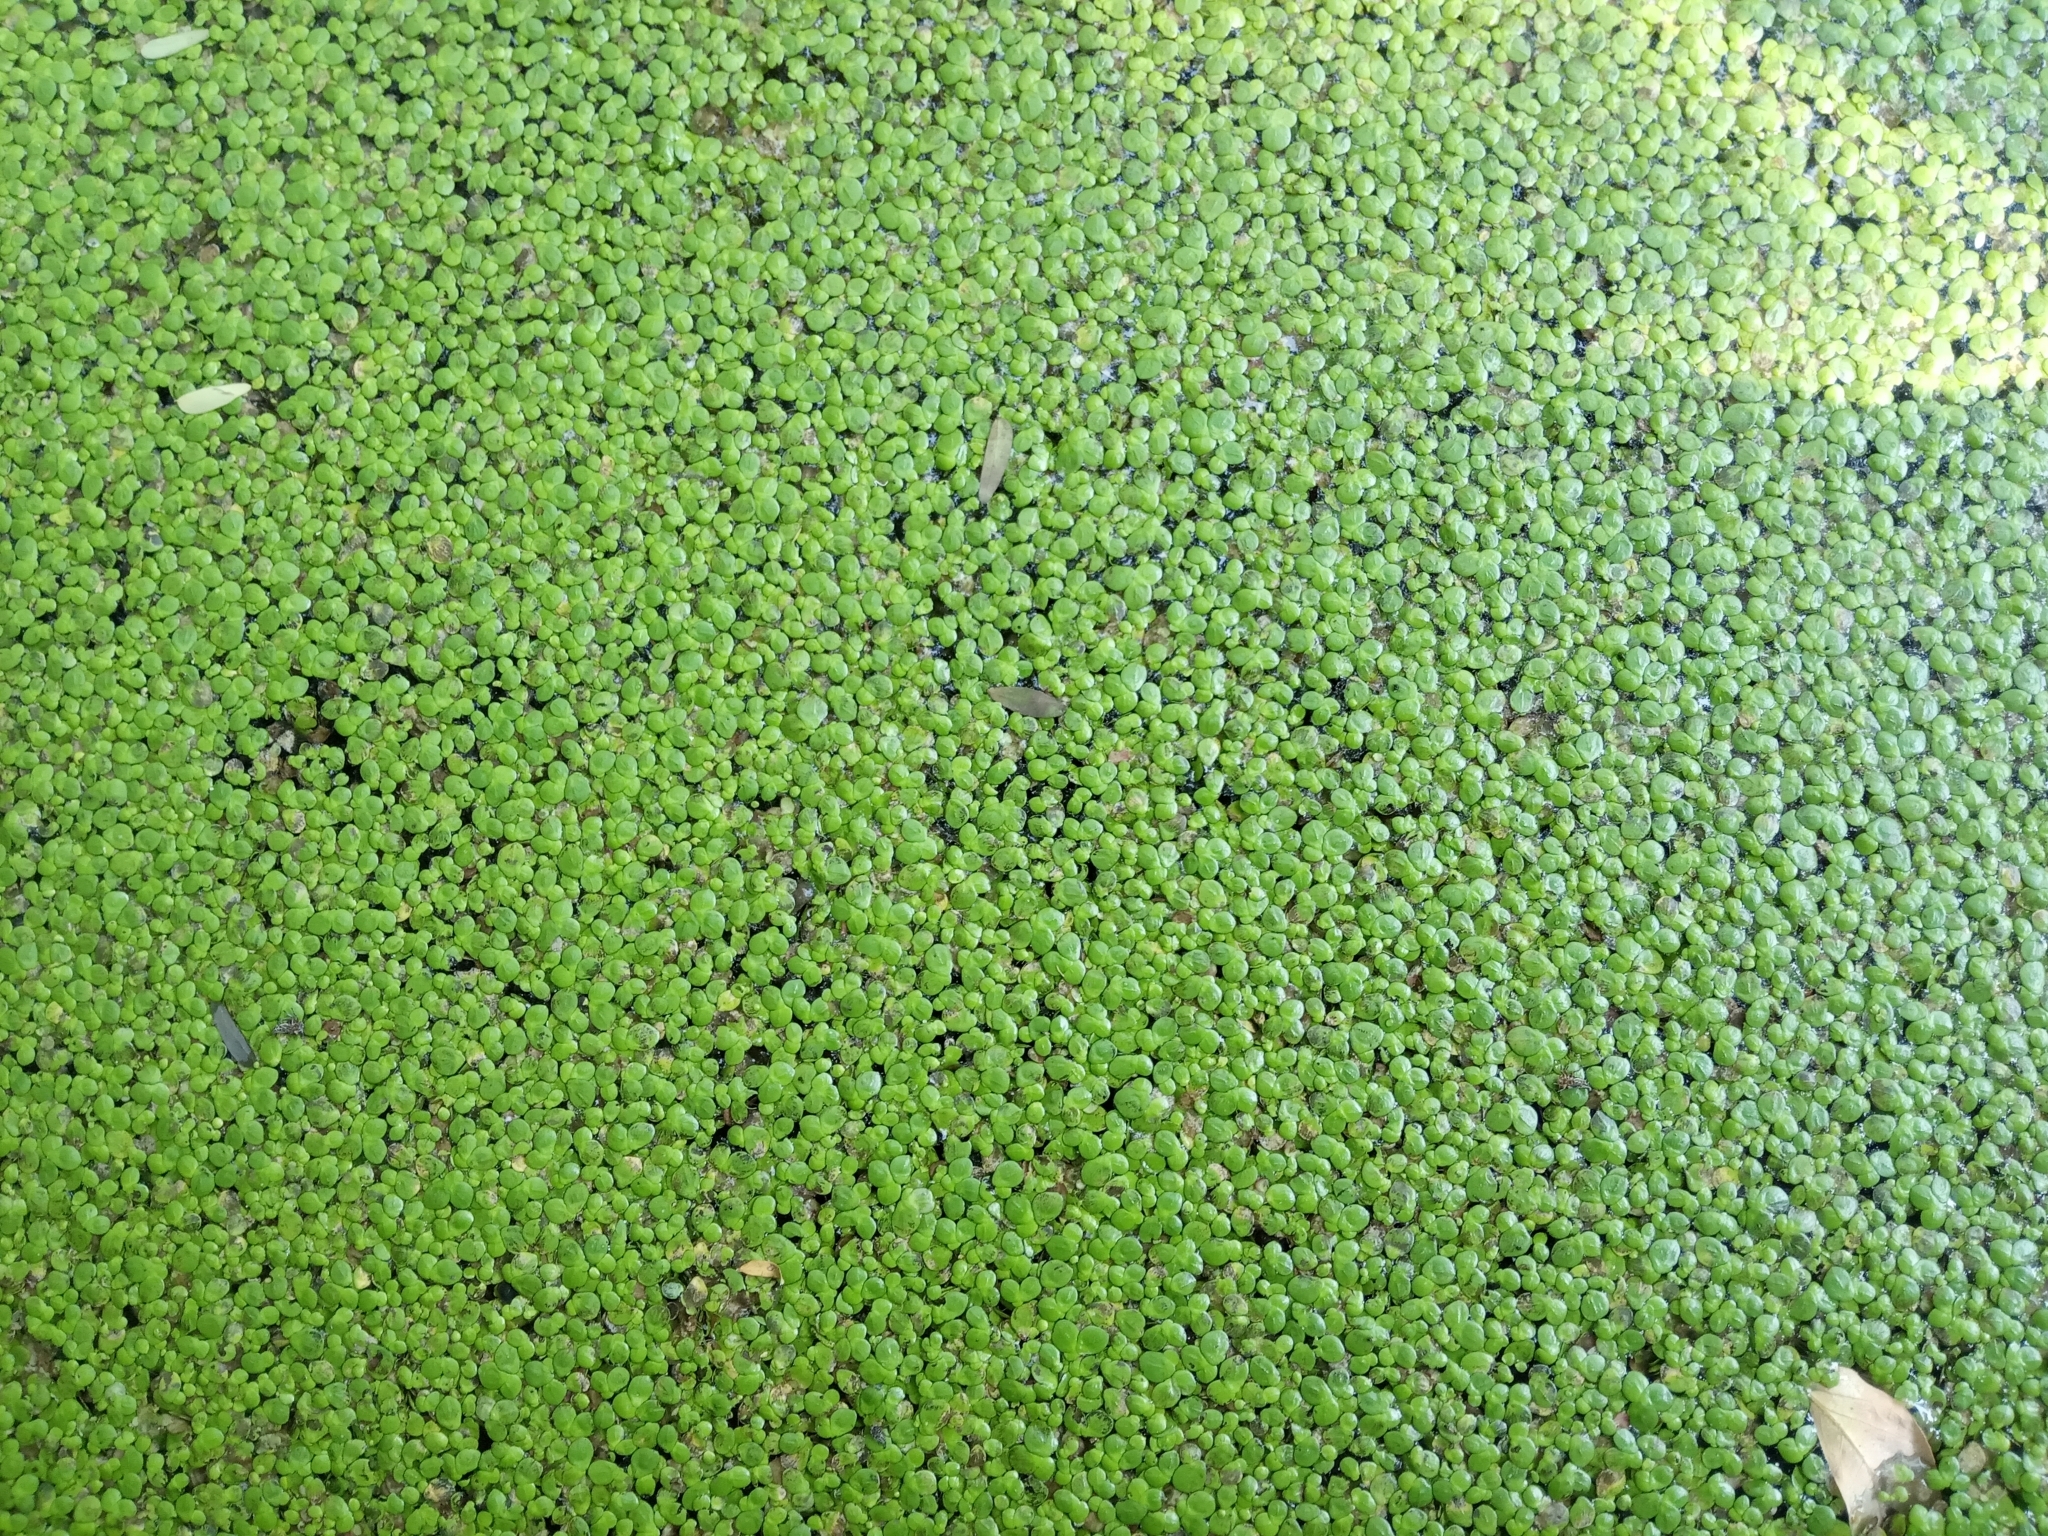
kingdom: Plantae
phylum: Tracheophyta
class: Liliopsida
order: Alismatales
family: Araceae
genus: Spirodela
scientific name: Spirodela polyrhiza
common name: Great duckweed
